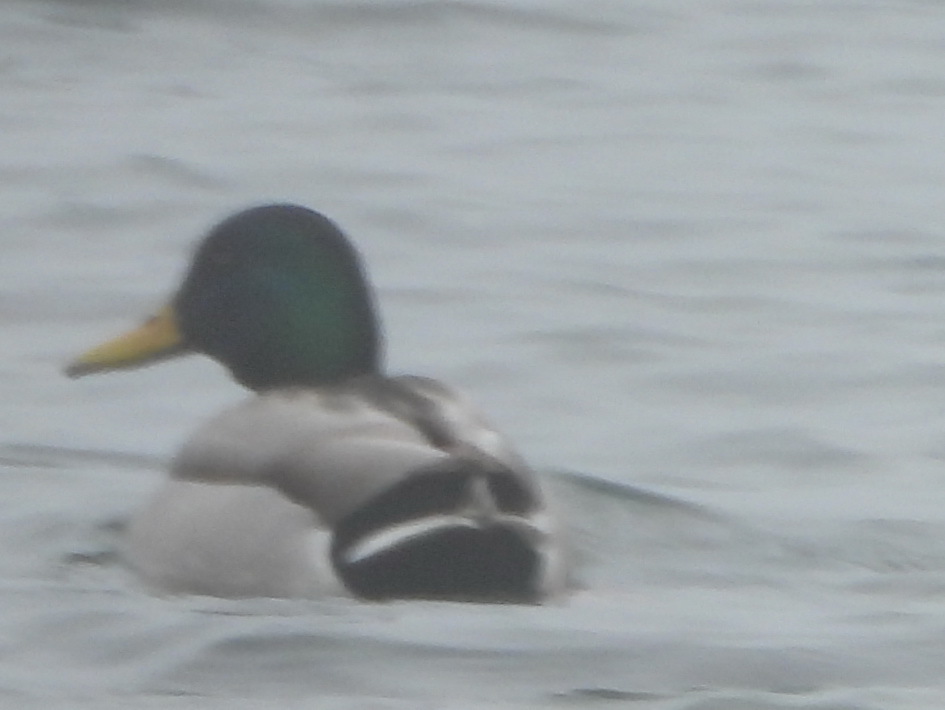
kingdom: Animalia
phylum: Chordata
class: Aves
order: Anseriformes
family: Anatidae
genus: Anas
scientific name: Anas platyrhynchos
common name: Mallard
